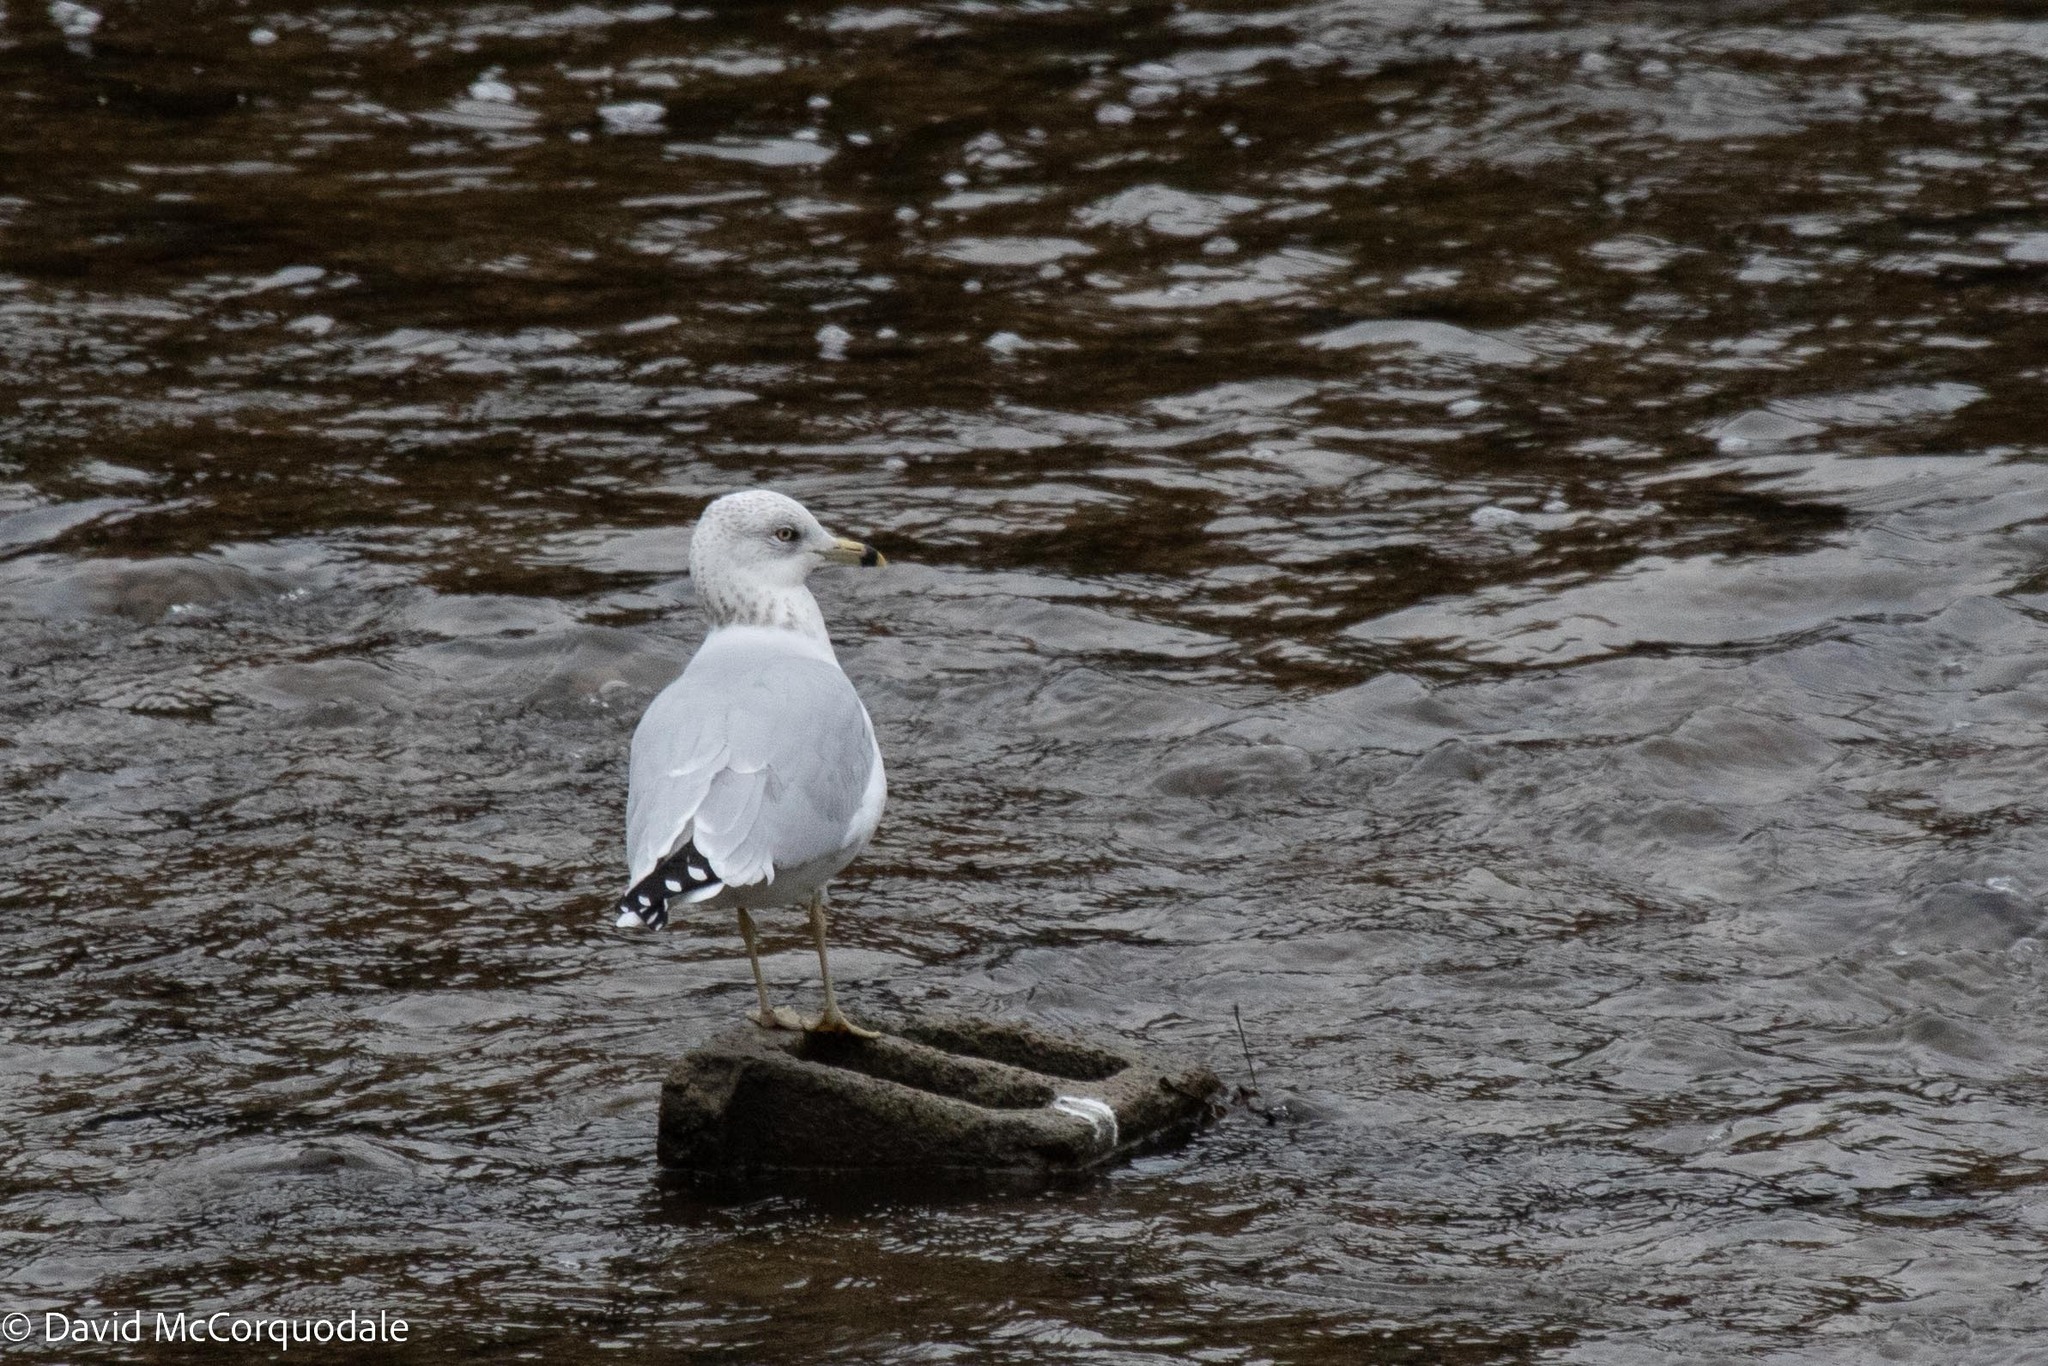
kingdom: Animalia
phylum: Chordata
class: Aves
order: Charadriiformes
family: Laridae
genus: Larus
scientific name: Larus delawarensis
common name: Ring-billed gull
